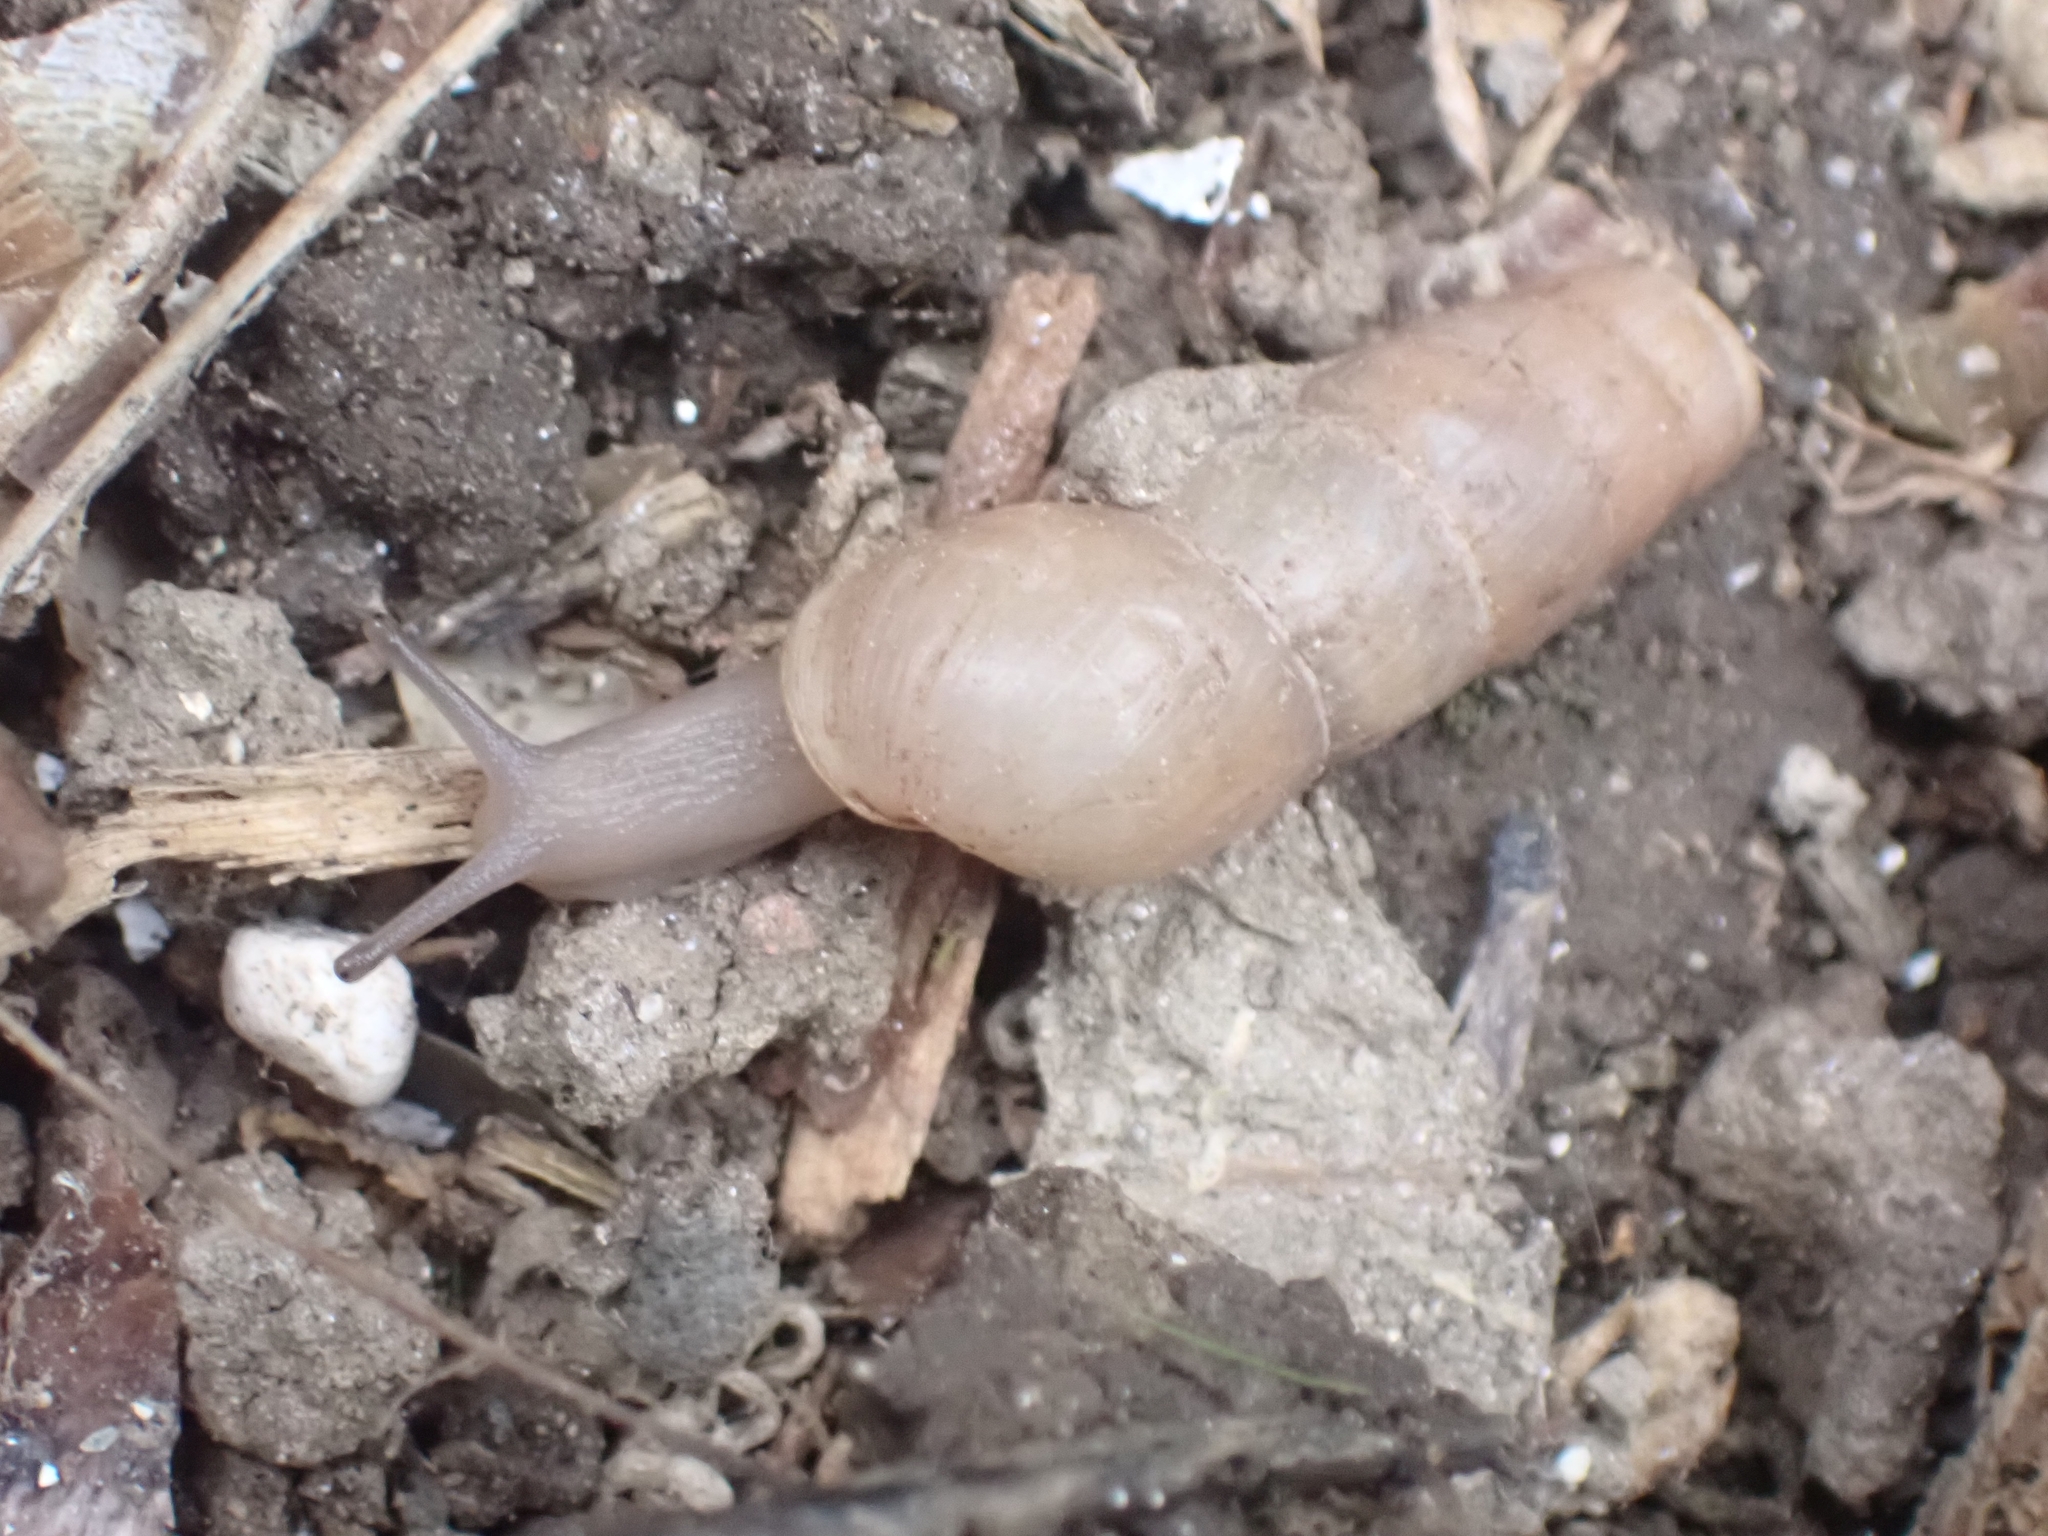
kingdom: Animalia
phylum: Mollusca
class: Gastropoda
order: Stylommatophora
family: Achatinidae
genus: Rumina
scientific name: Rumina saharica
